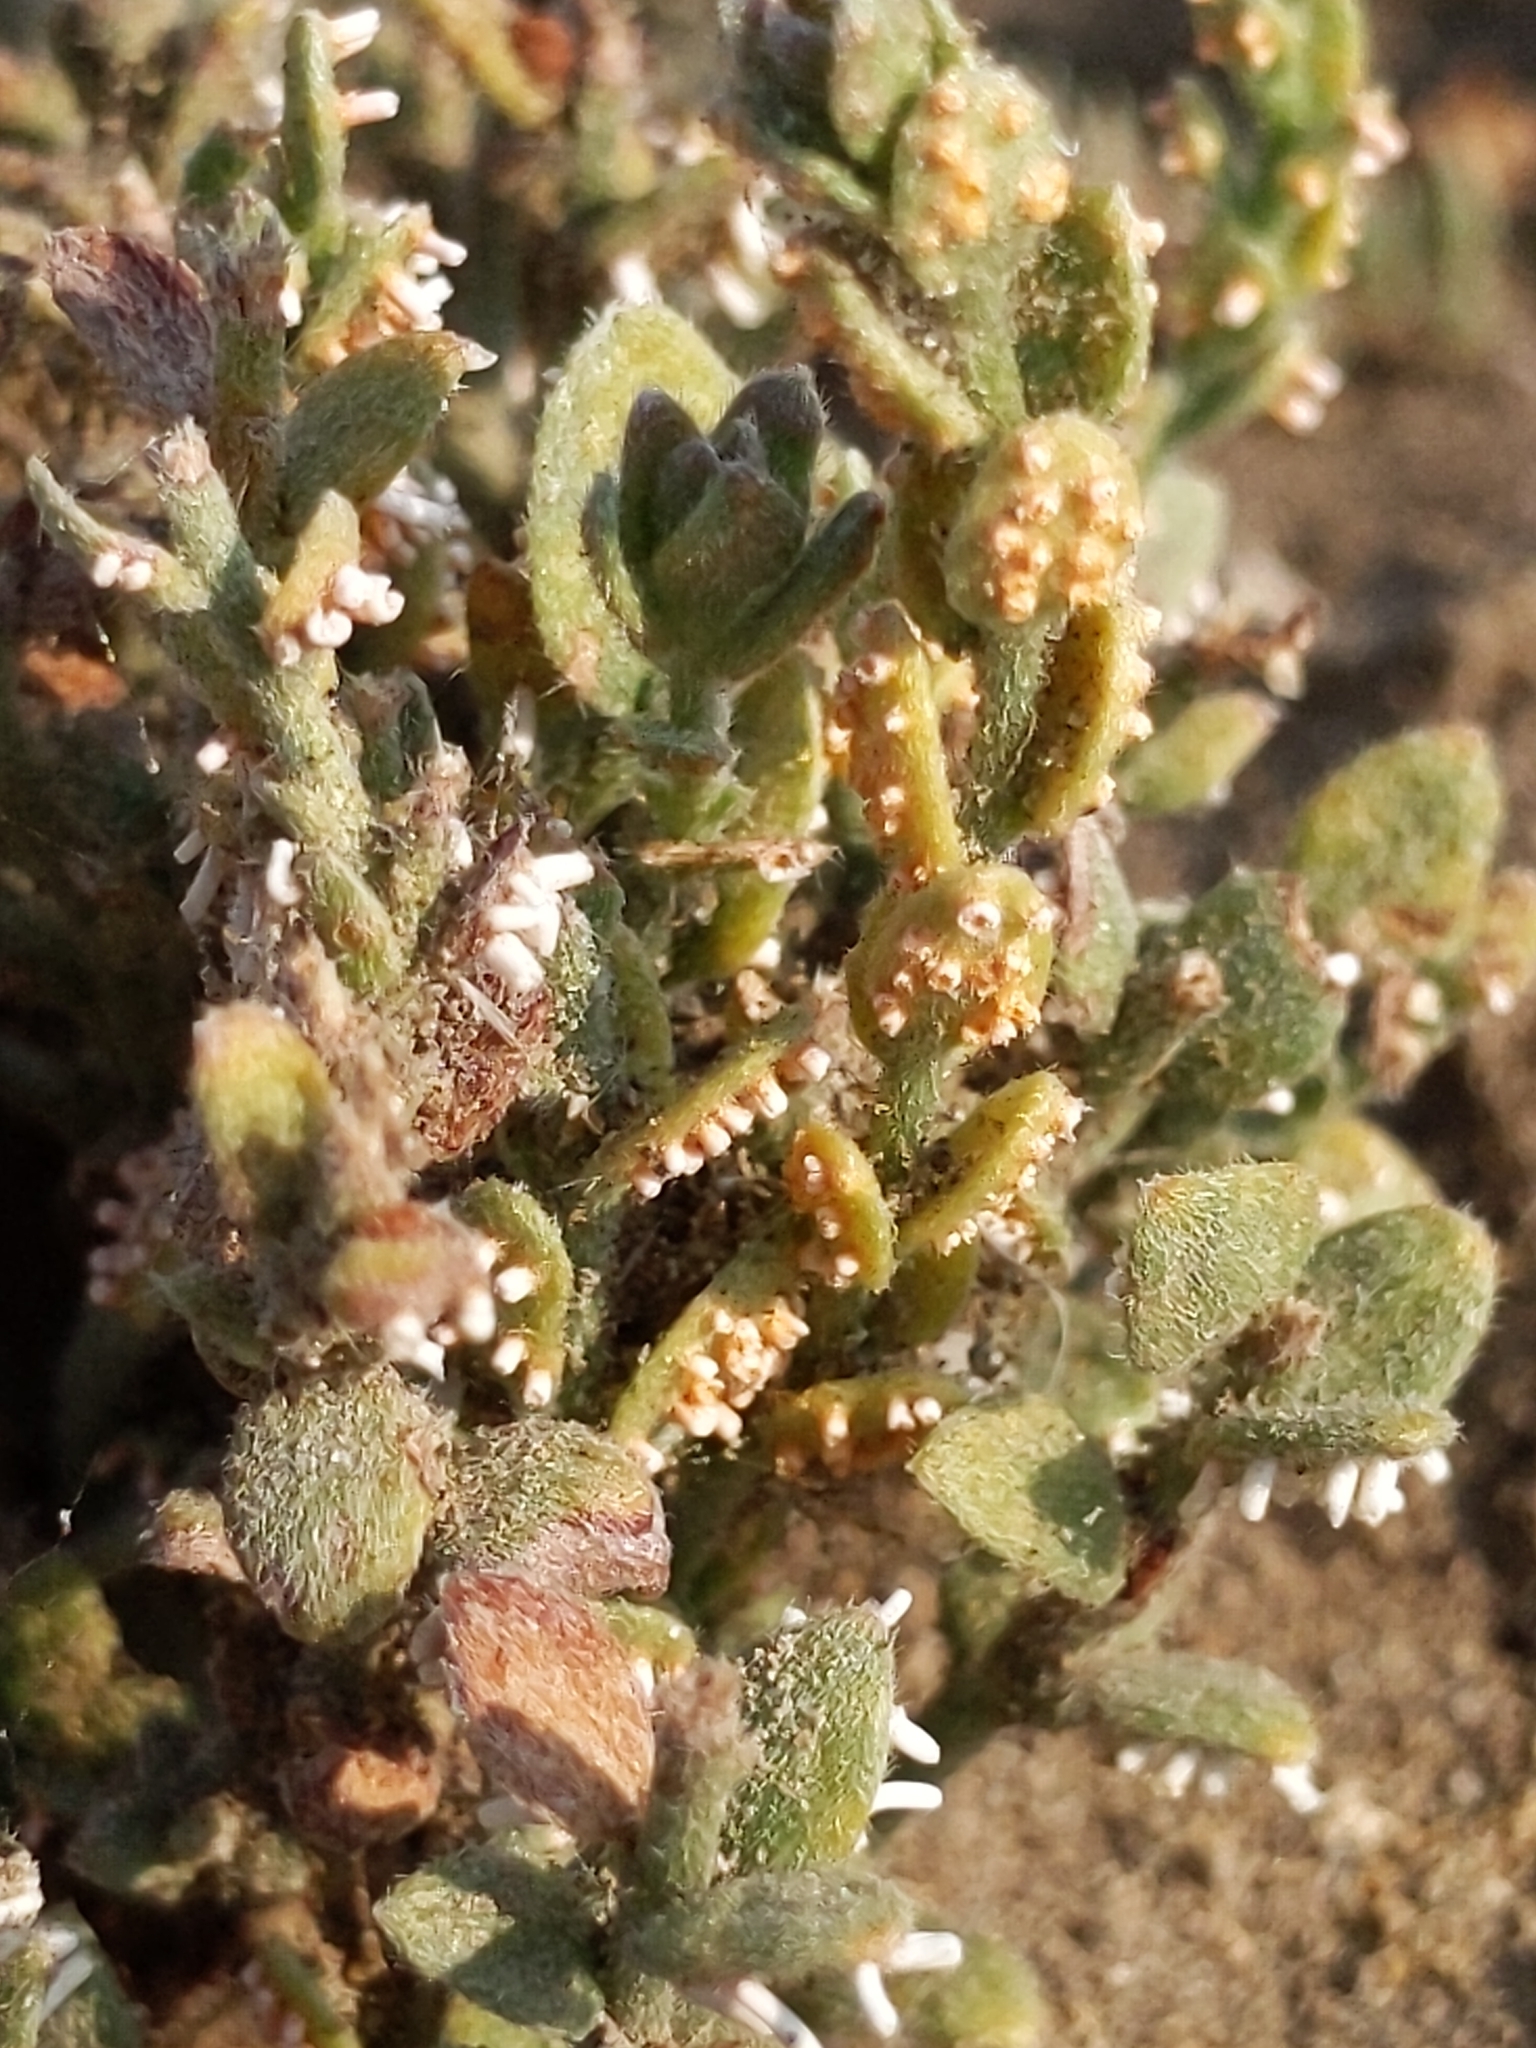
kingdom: Plantae
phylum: Tracheophyta
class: Magnoliopsida
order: Solanales
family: Convolvulaceae
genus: Cressa
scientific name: Cressa truxillensis
